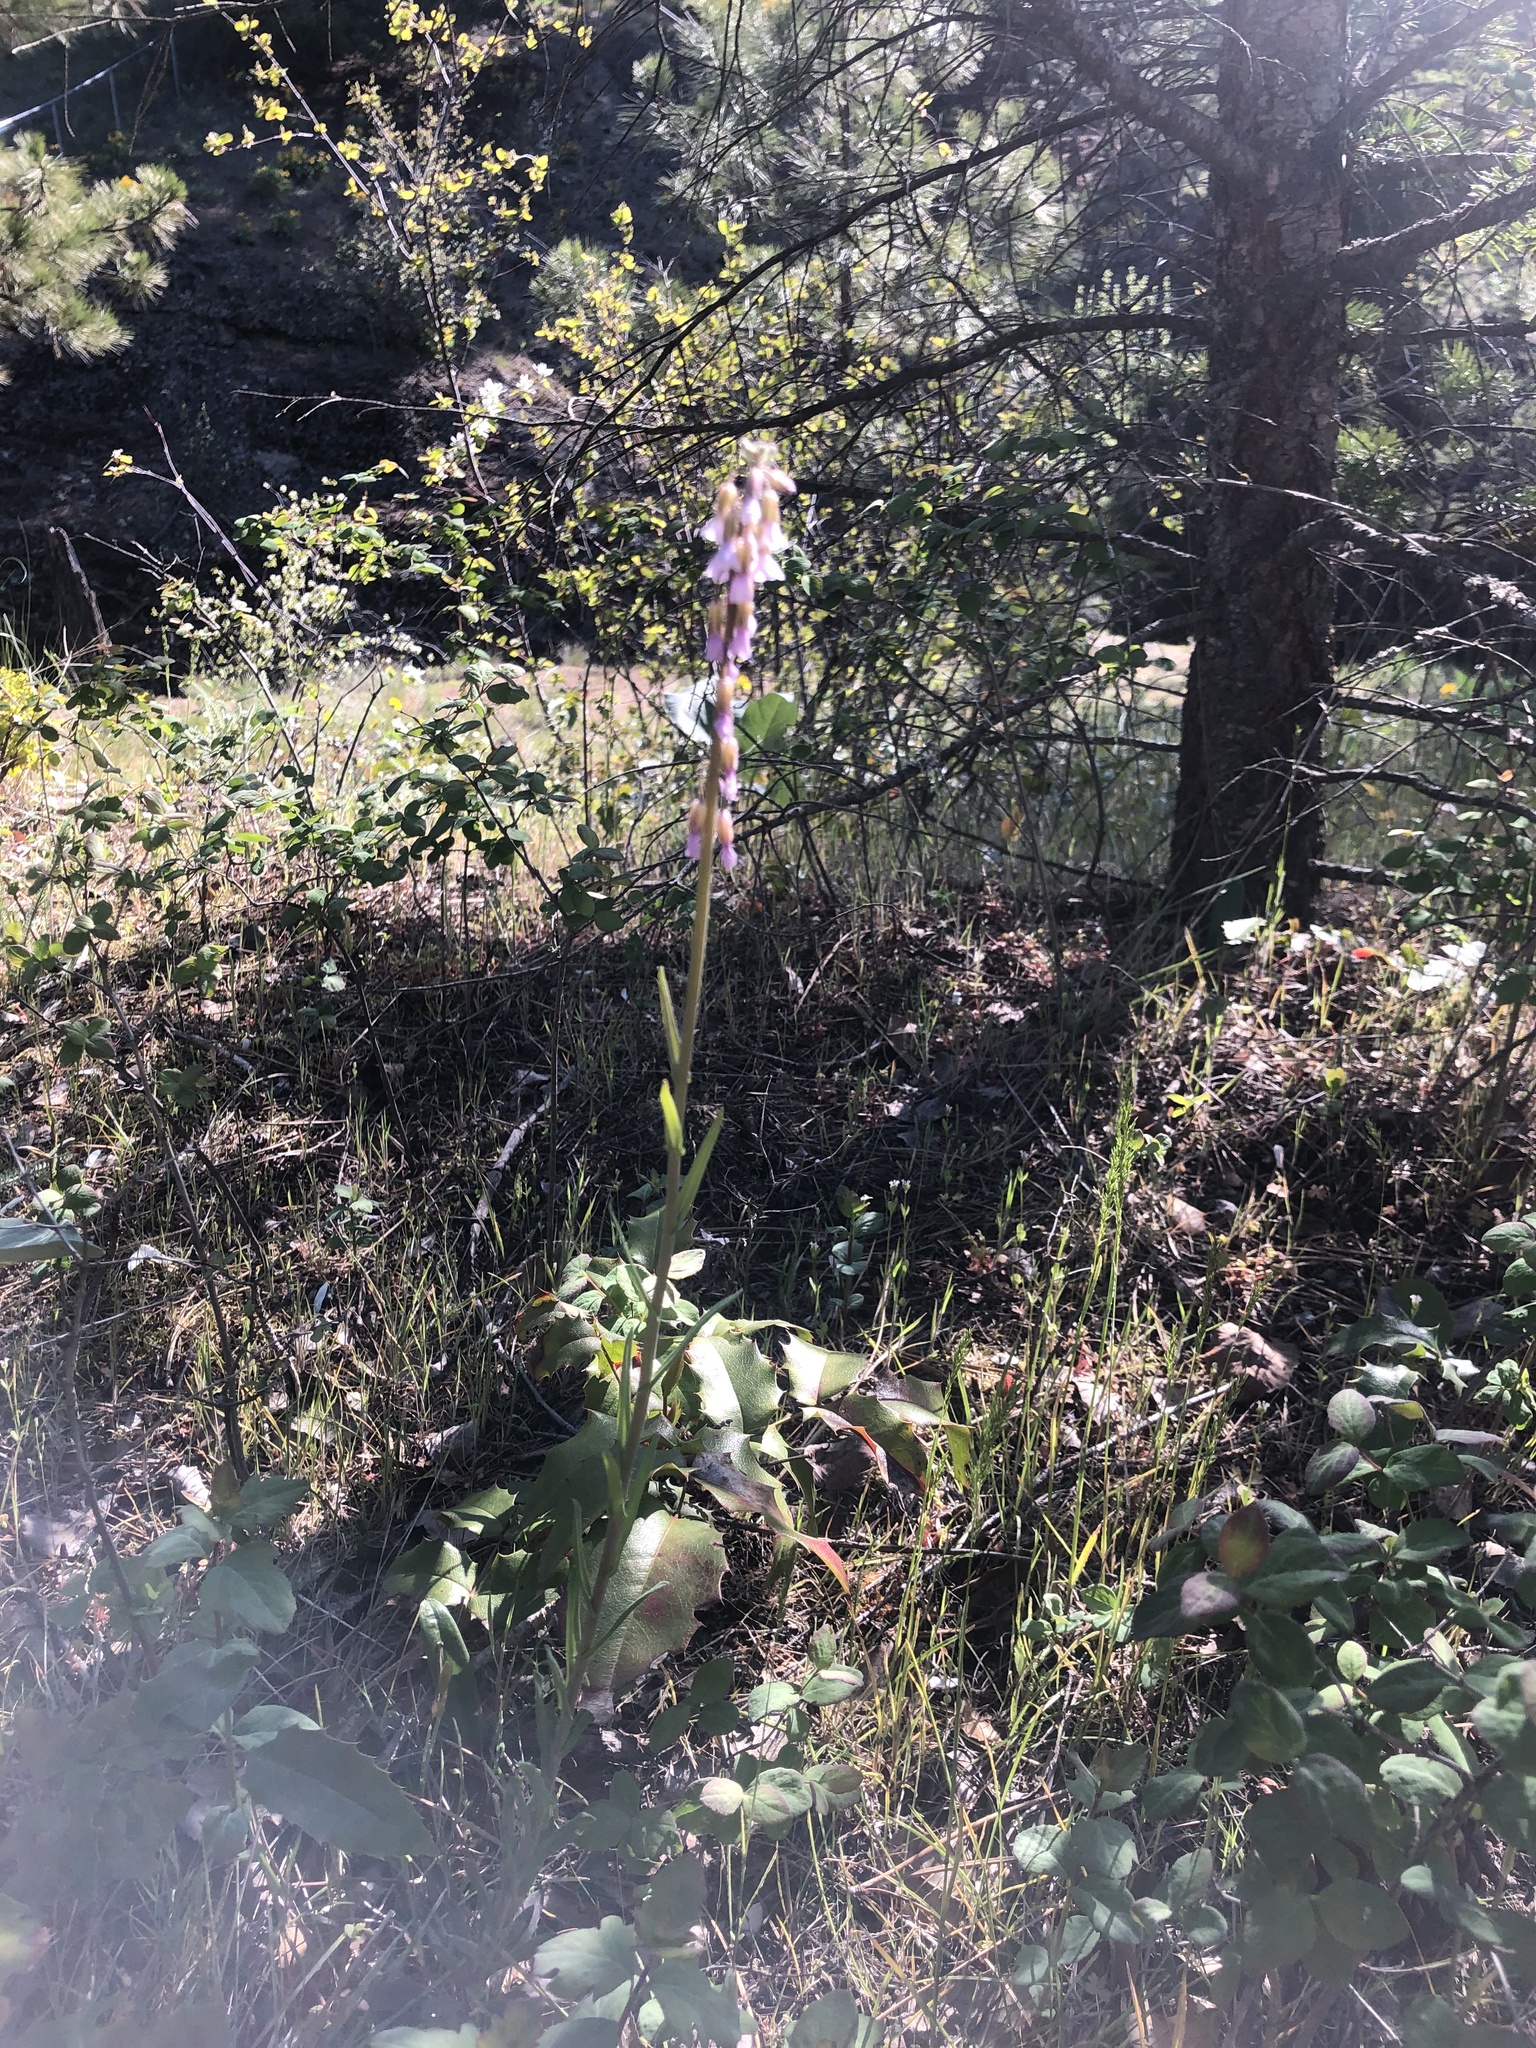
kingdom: Plantae
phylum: Tracheophyta
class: Magnoliopsida
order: Brassicales
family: Brassicaceae
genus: Boechera
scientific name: Boechera retrofracta
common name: Dangling suncress
